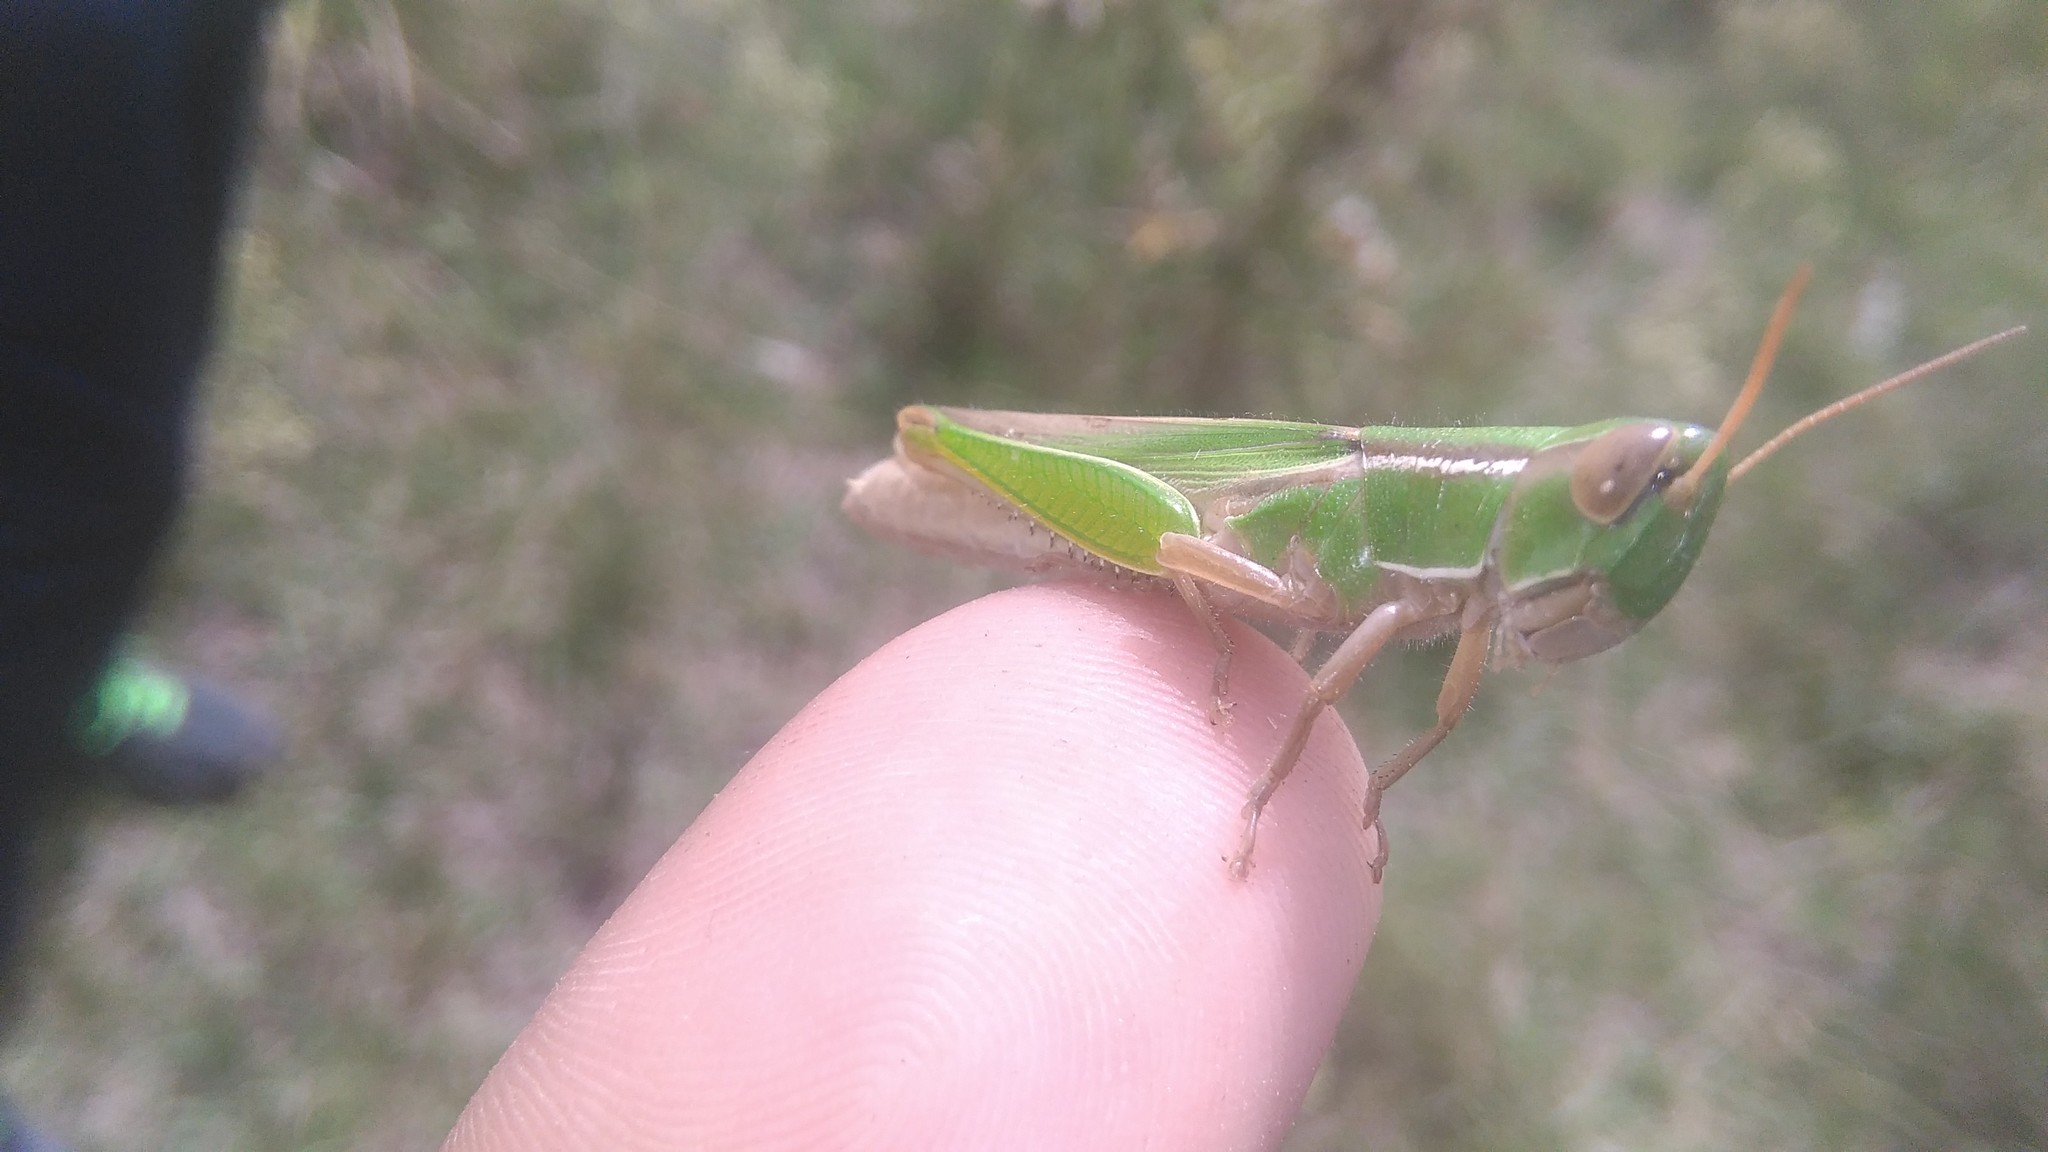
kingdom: Animalia
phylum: Arthropoda
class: Insecta
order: Orthoptera
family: Acrididae
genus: Aleuas
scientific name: Aleuas lineatus
